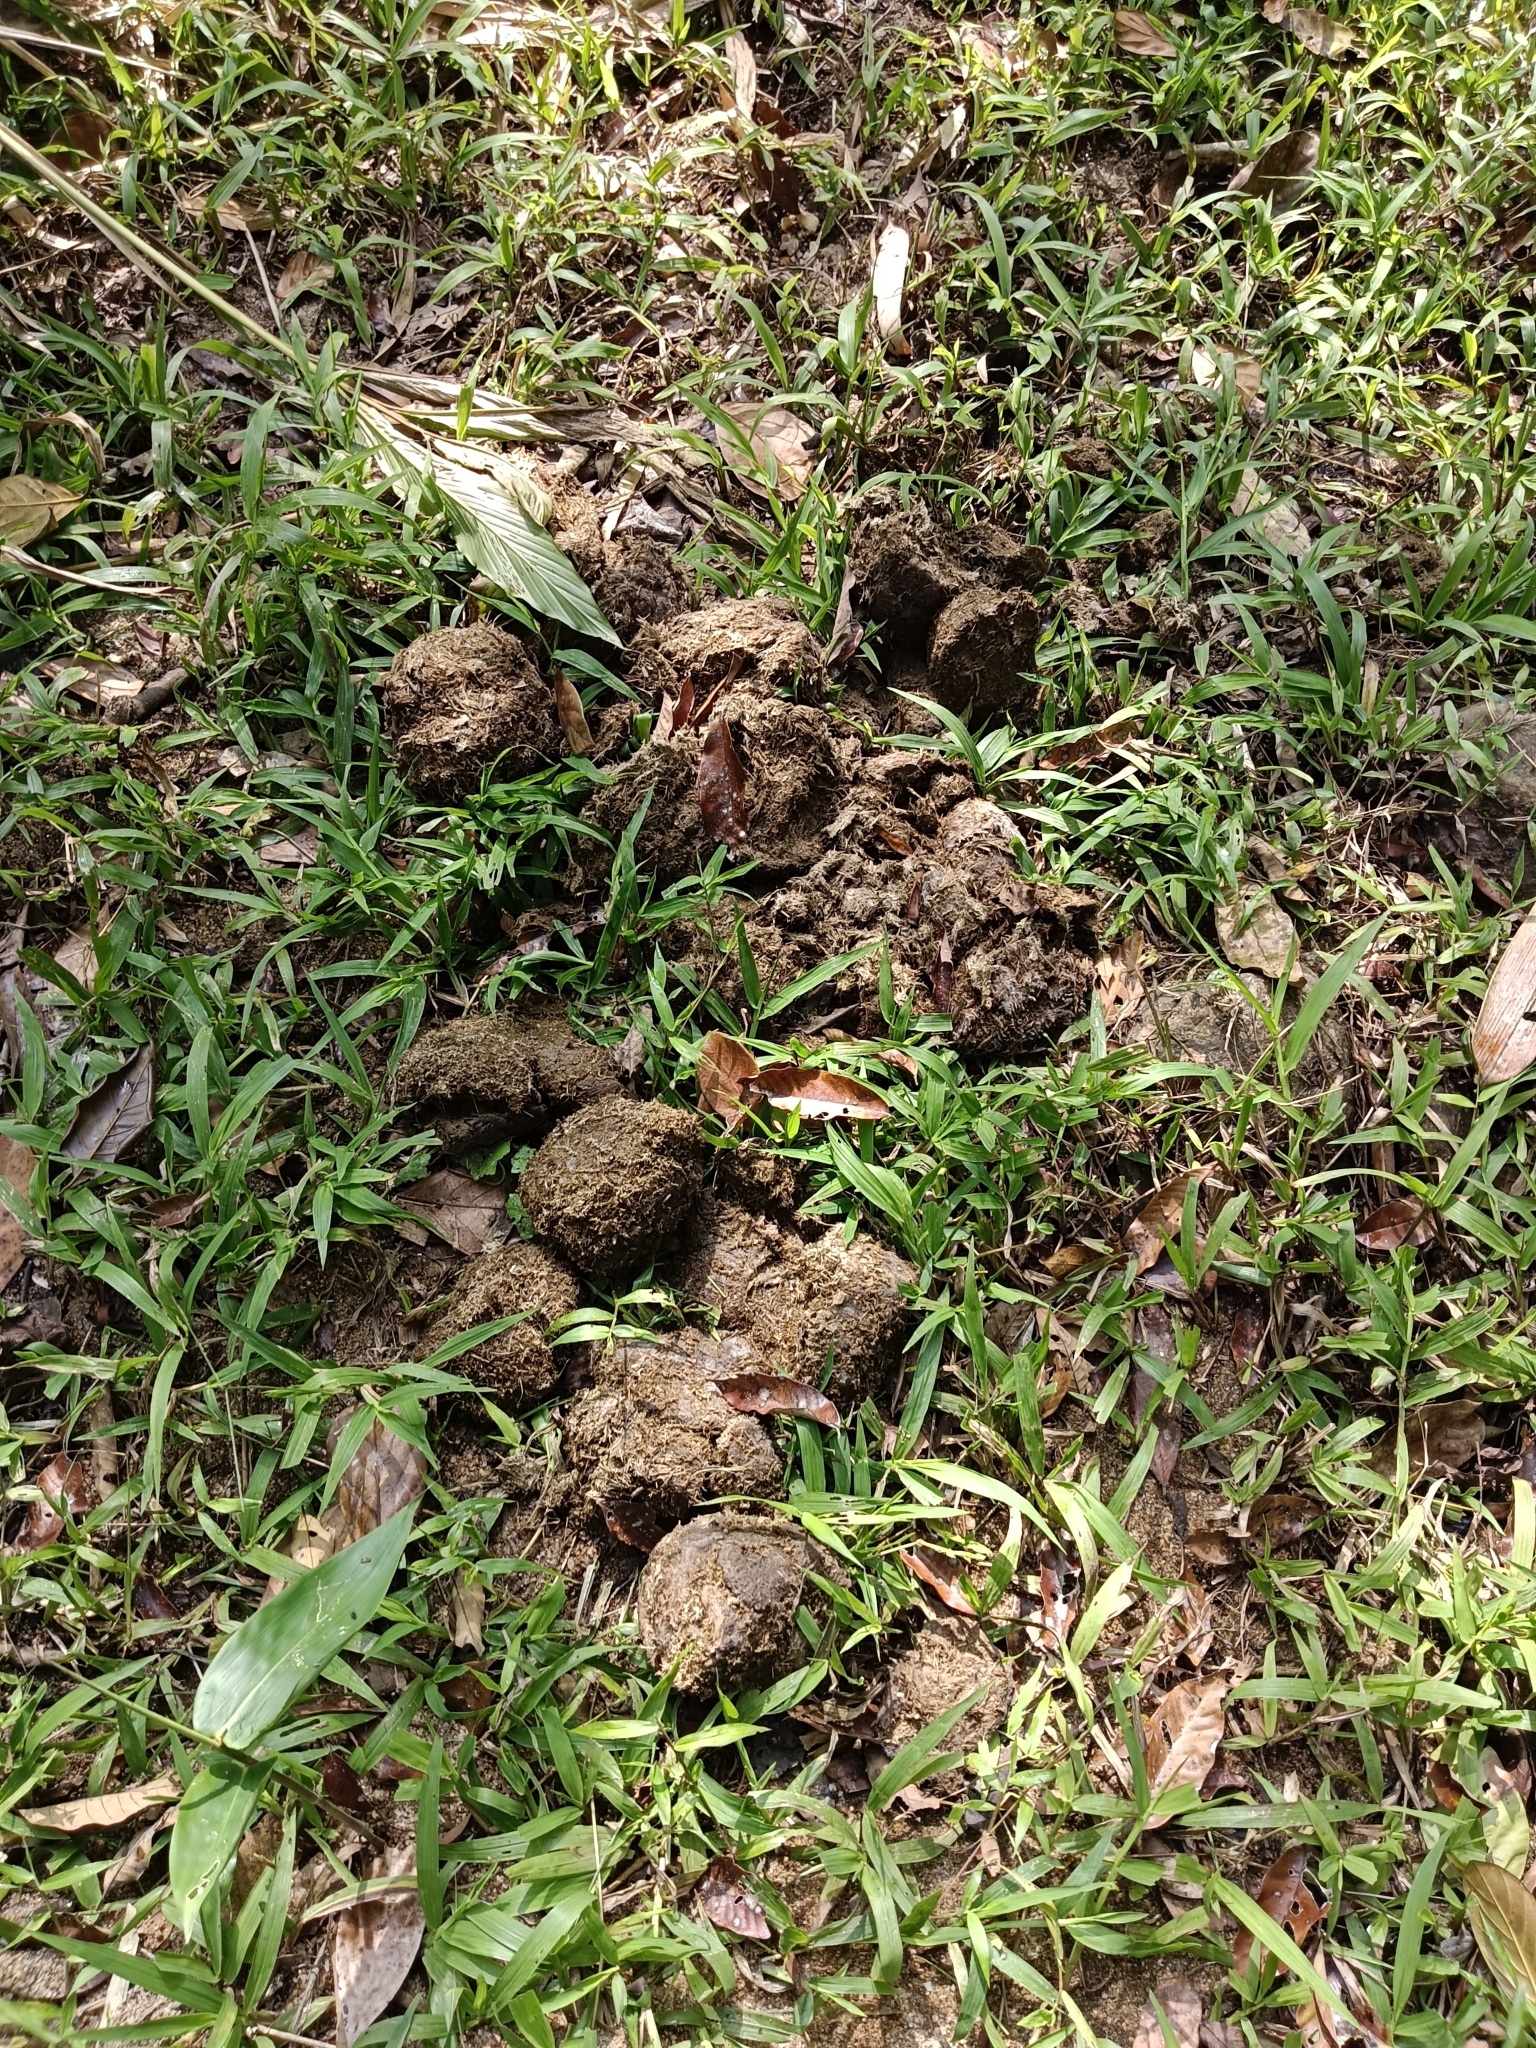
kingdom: Animalia
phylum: Chordata
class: Mammalia
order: Proboscidea
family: Elephantidae
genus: Elephas
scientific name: Elephas maximus
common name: Asian elephant
